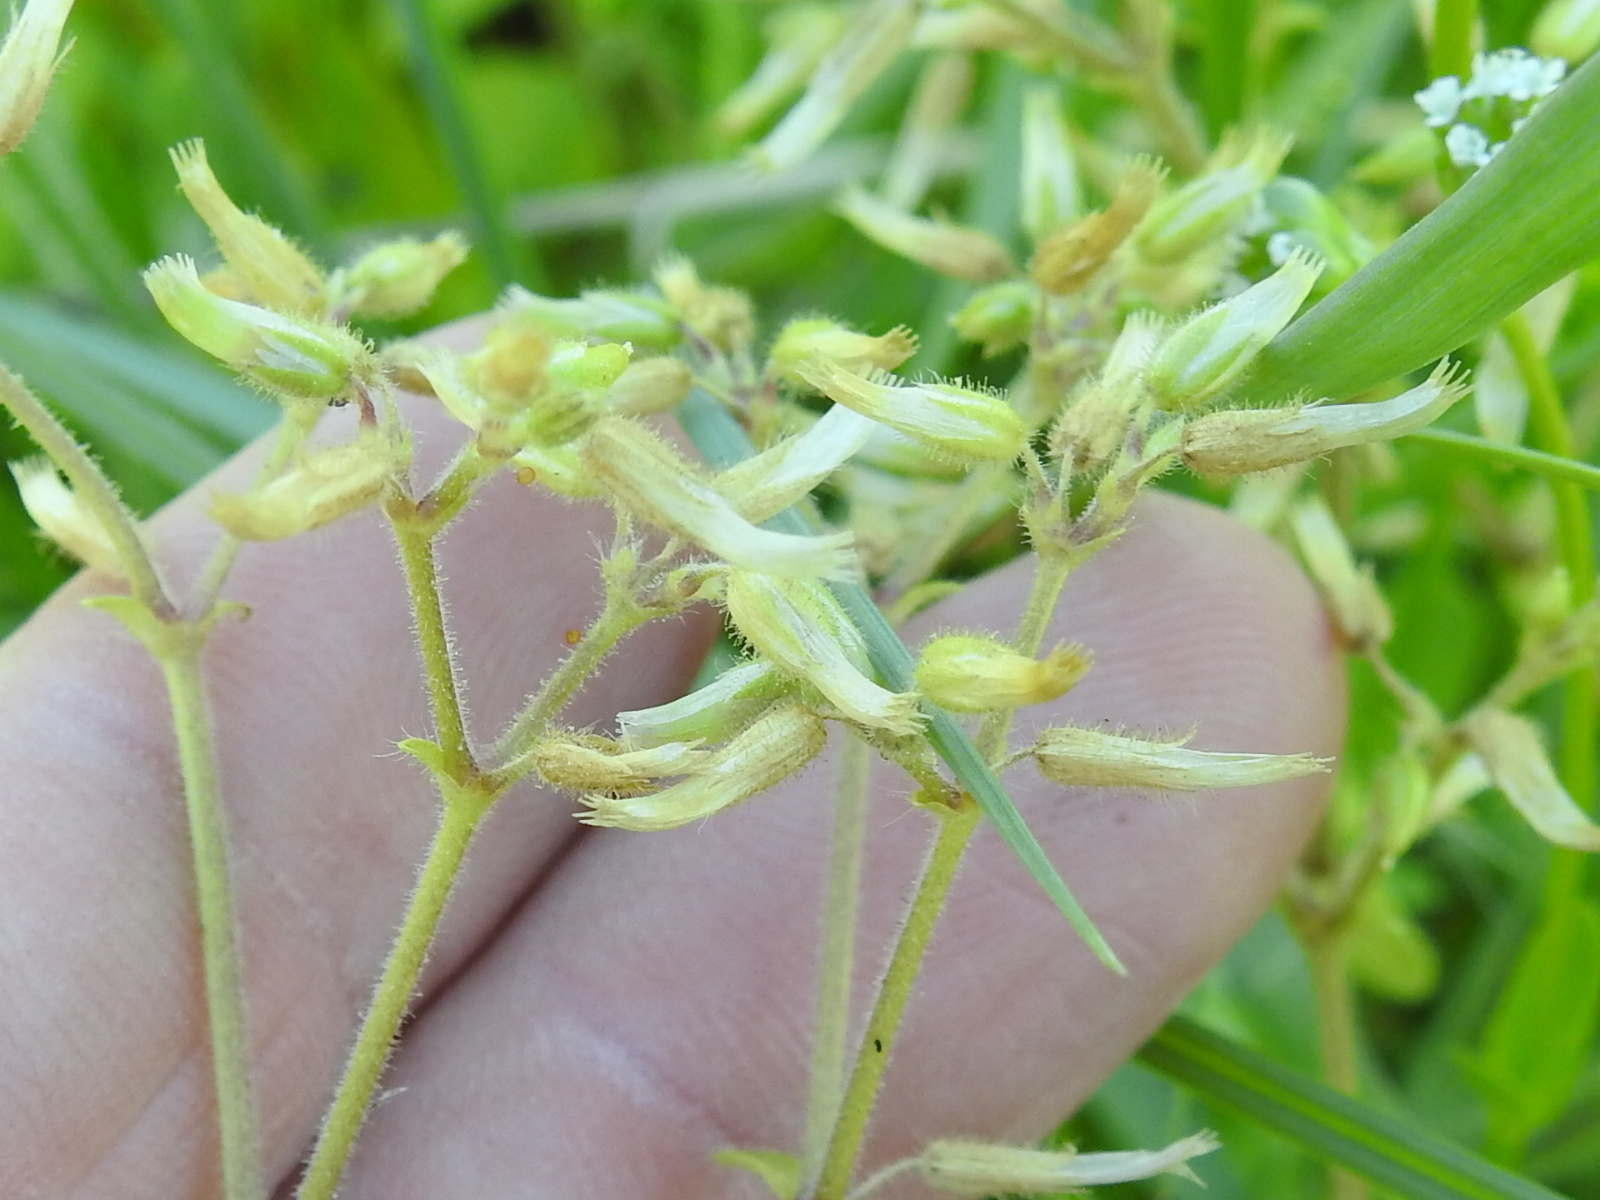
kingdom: Plantae
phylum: Tracheophyta
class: Magnoliopsida
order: Caryophyllales
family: Caryophyllaceae
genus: Cerastium
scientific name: Cerastium glomeratum
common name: Sticky chickweed
